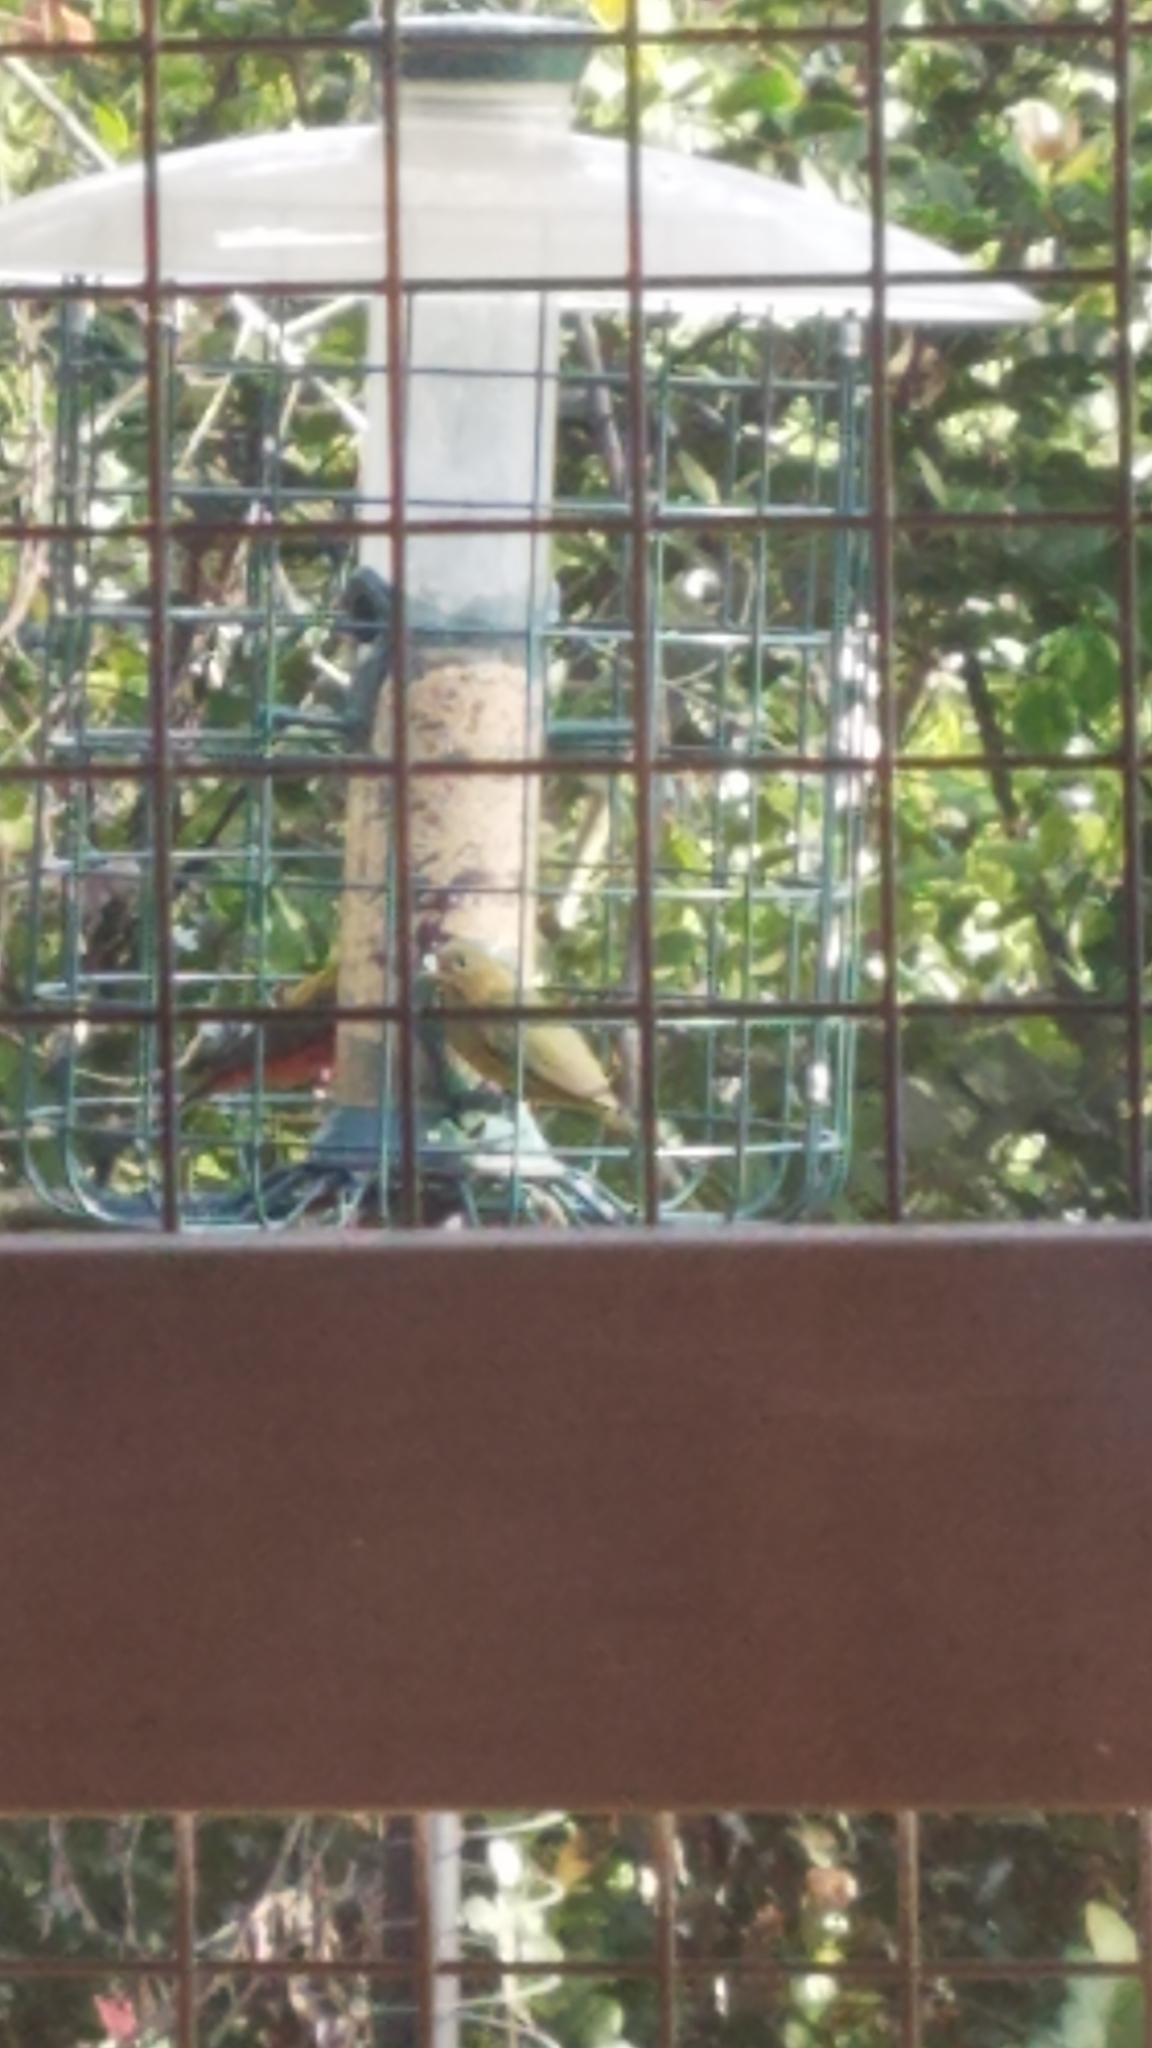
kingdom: Animalia
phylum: Chordata
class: Aves
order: Passeriformes
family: Cardinalidae
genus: Passerina
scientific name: Passerina ciris
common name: Painted bunting
